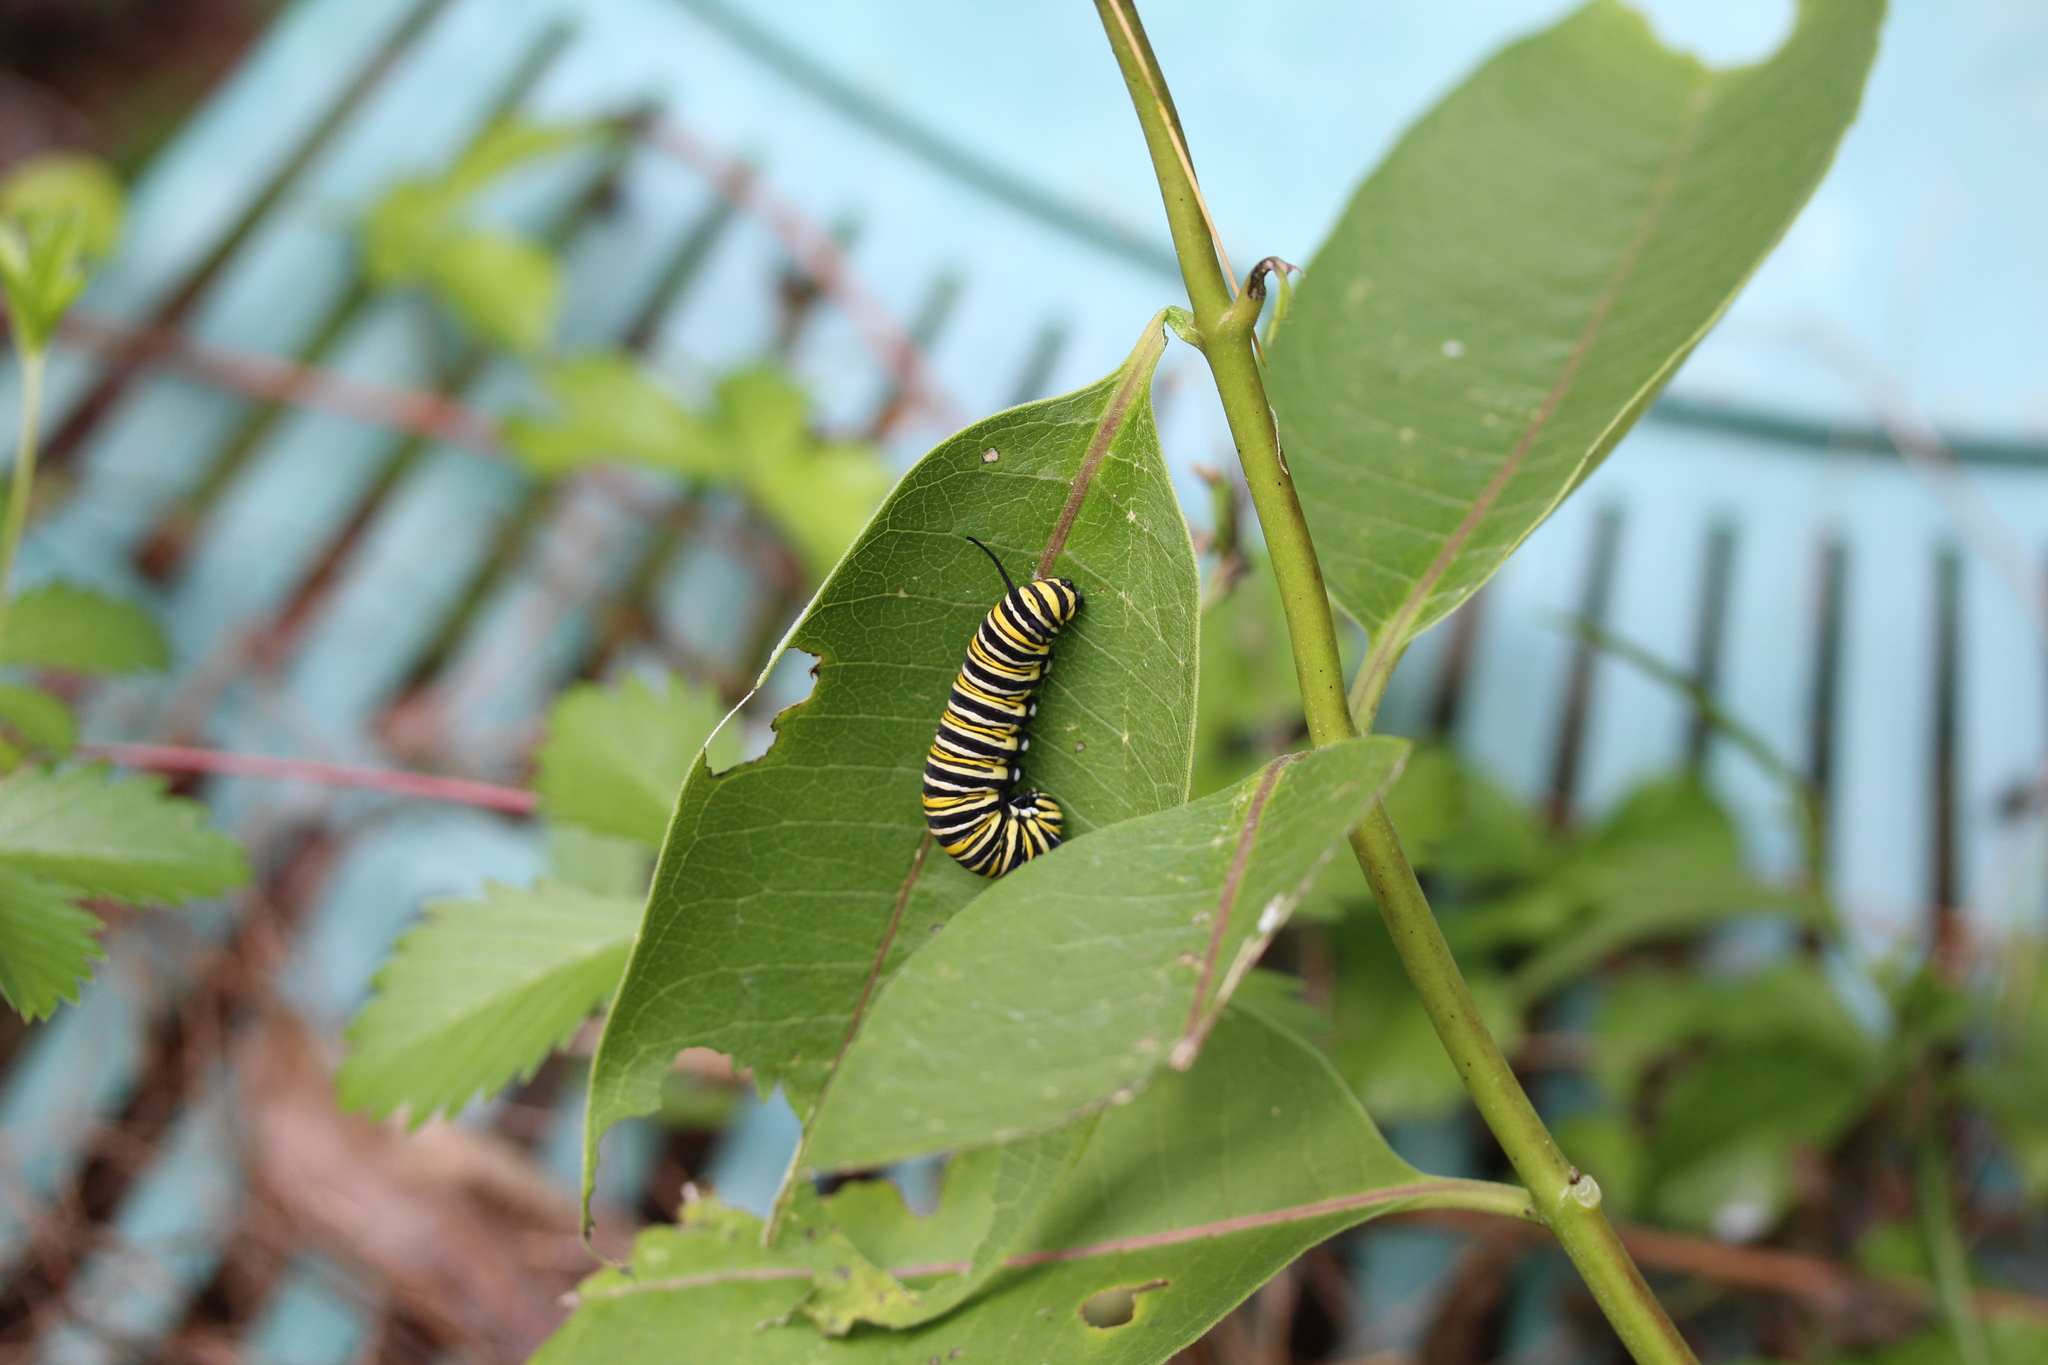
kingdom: Animalia
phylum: Arthropoda
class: Insecta
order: Lepidoptera
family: Nymphalidae
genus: Danaus
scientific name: Danaus plexippus
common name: Monarch
